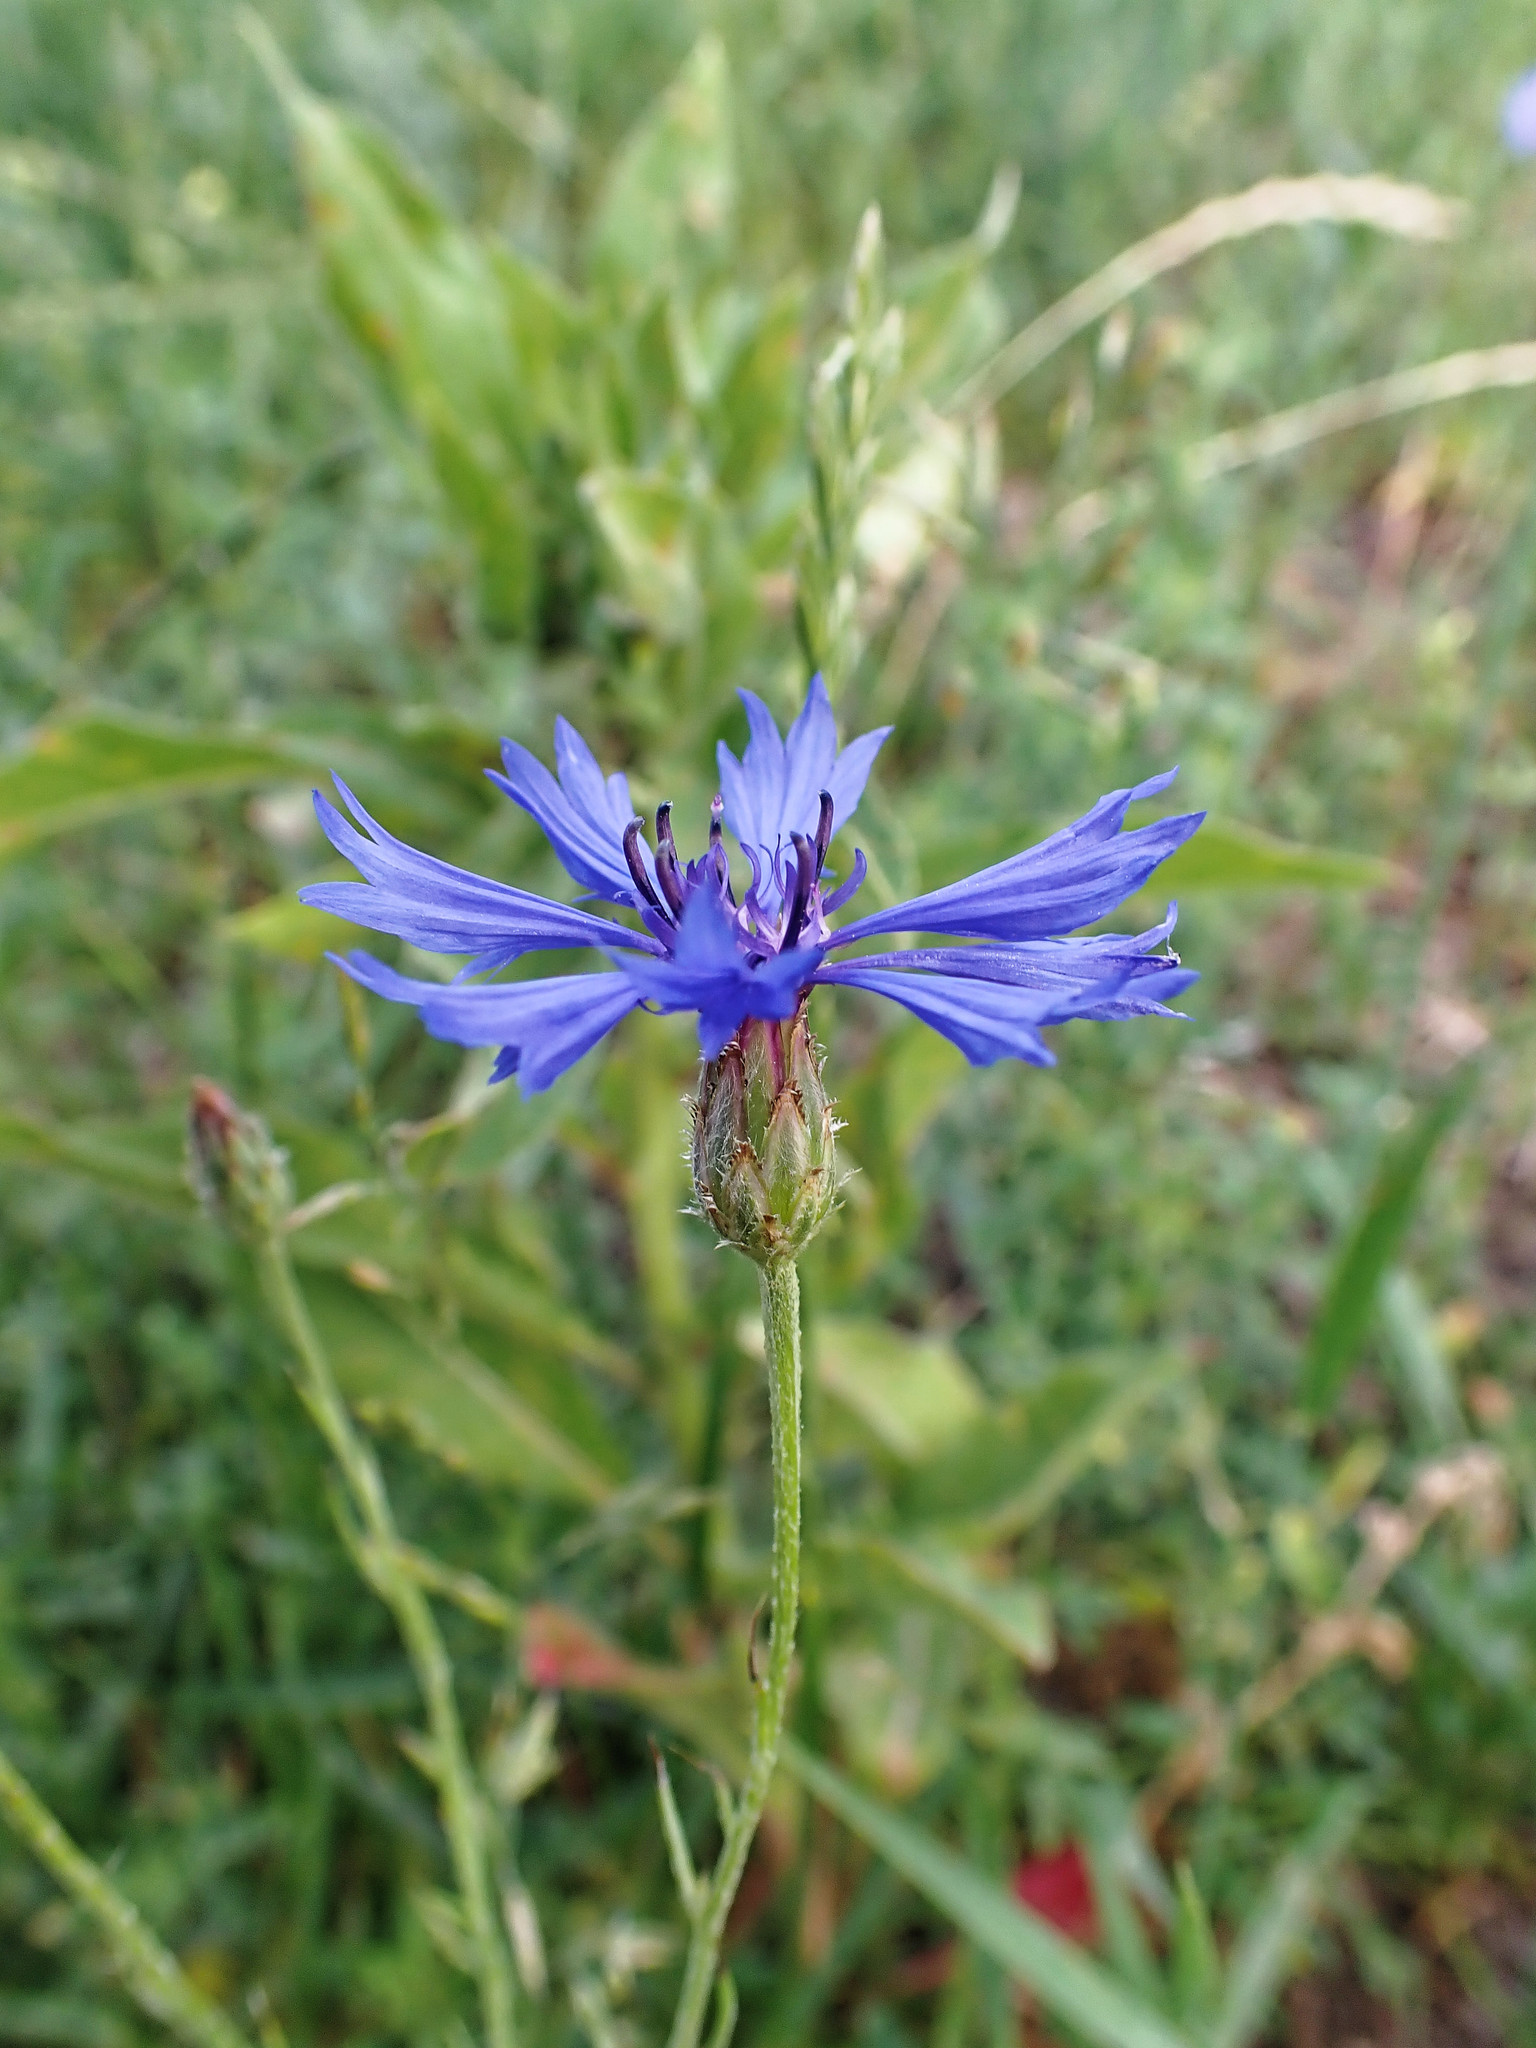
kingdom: Plantae
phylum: Tracheophyta
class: Magnoliopsida
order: Asterales
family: Asteraceae
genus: Centaurea
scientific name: Centaurea cyanus
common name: Cornflower
